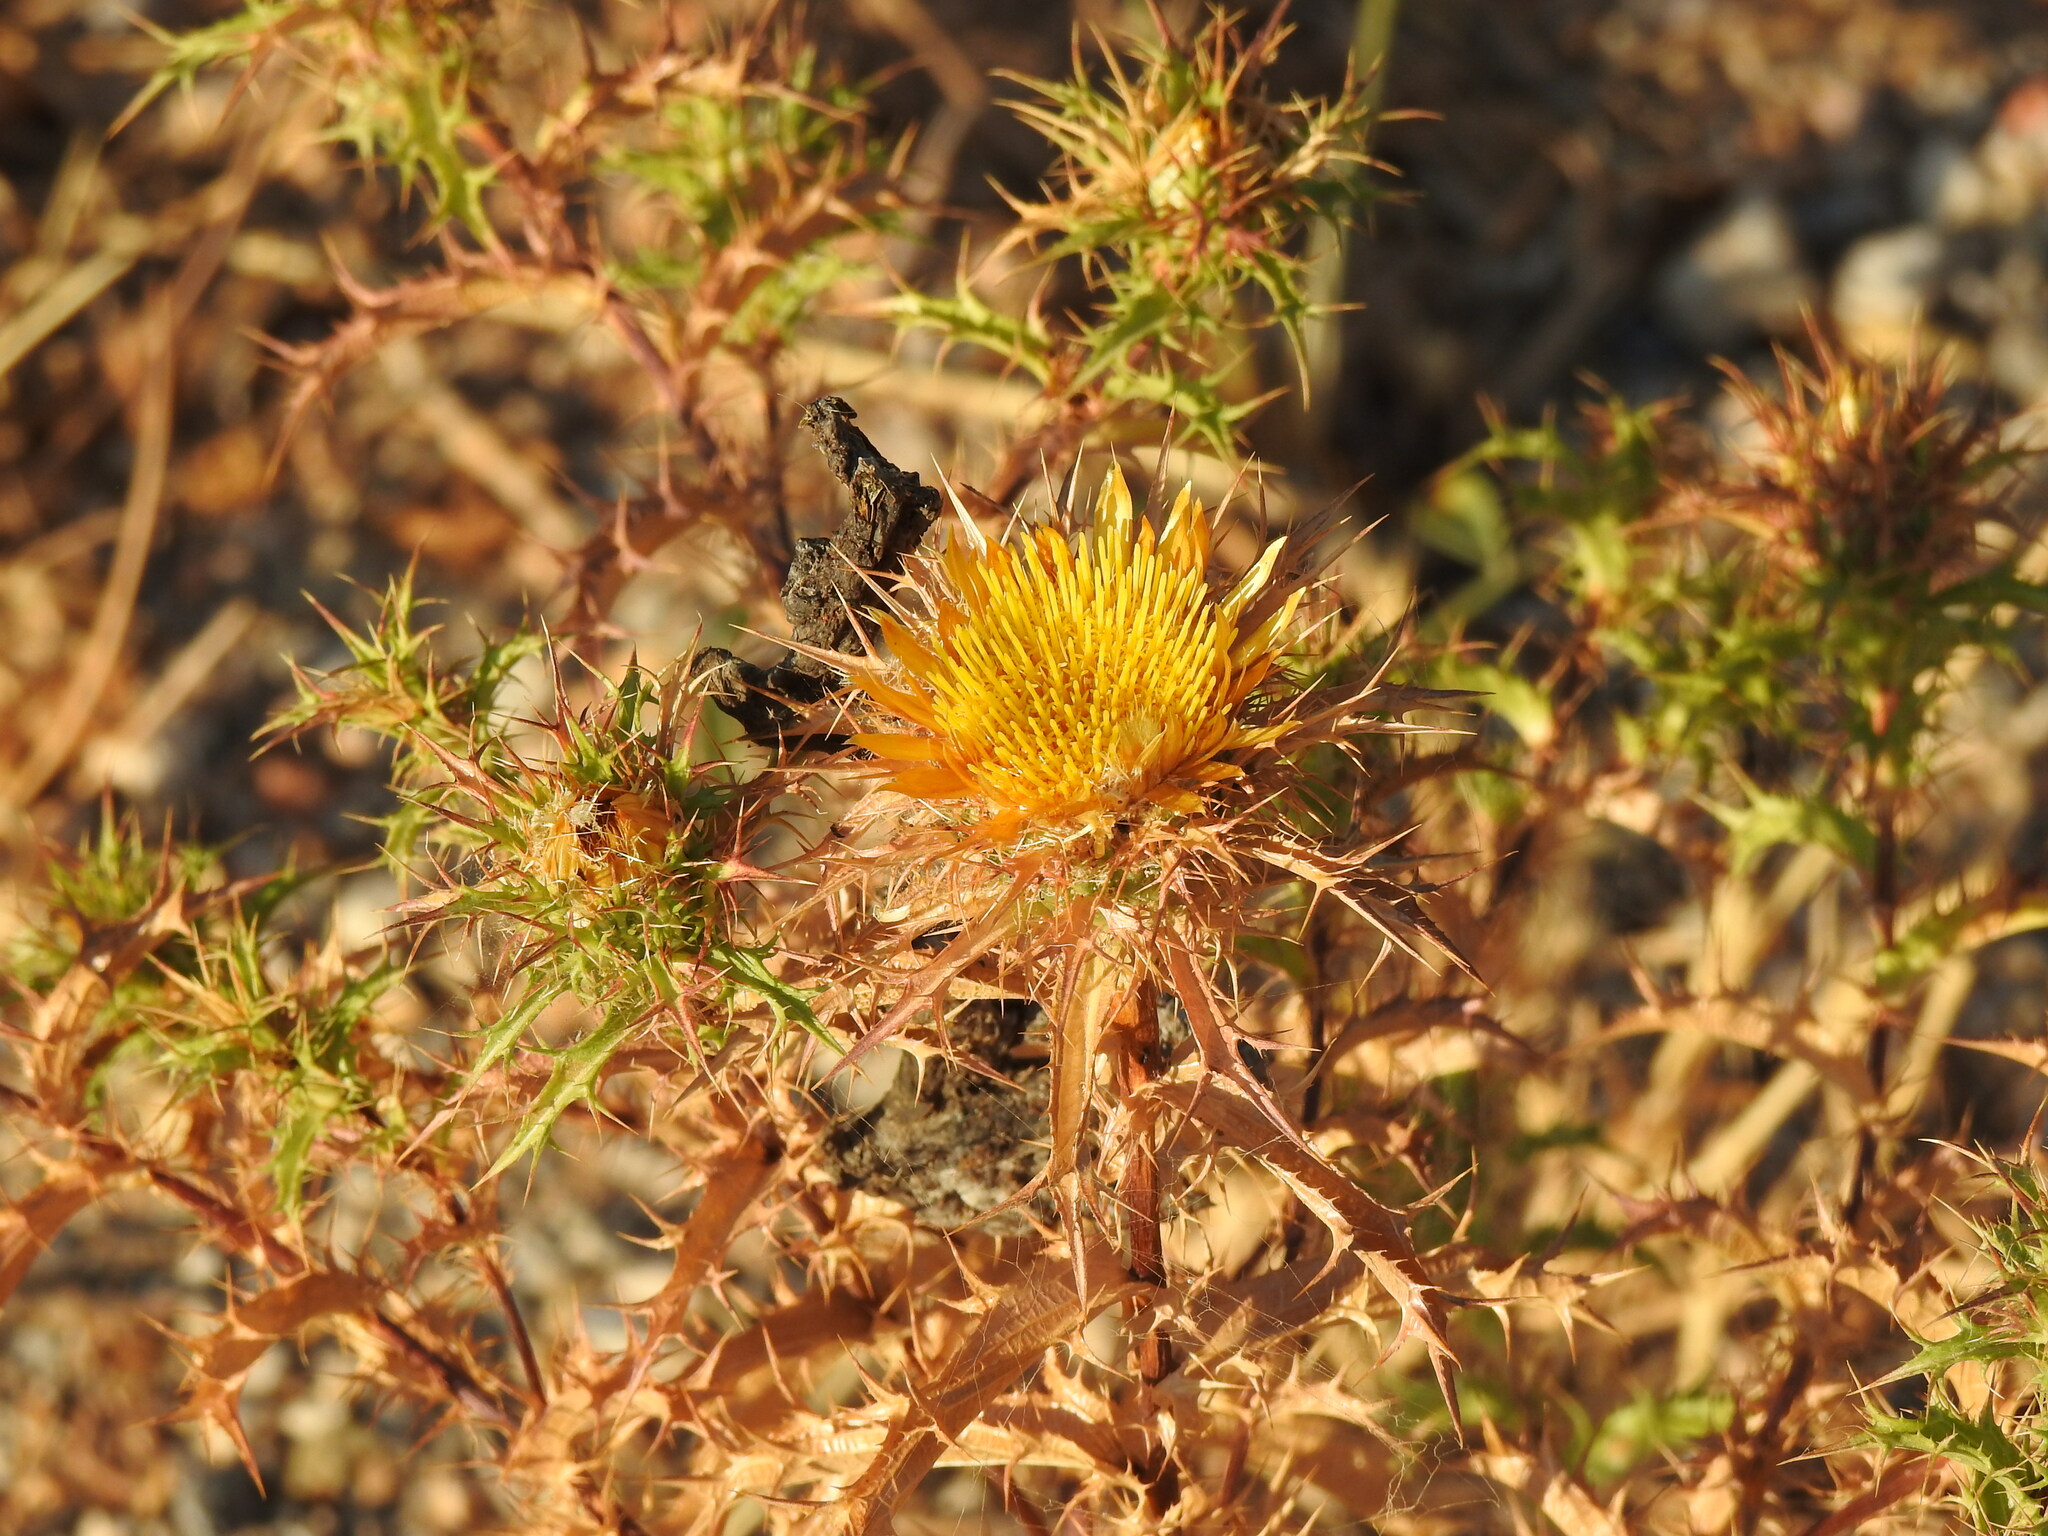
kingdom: Plantae
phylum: Tracheophyta
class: Magnoliopsida
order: Asterales
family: Asteraceae
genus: Carlina
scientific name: Carlina hispanica
